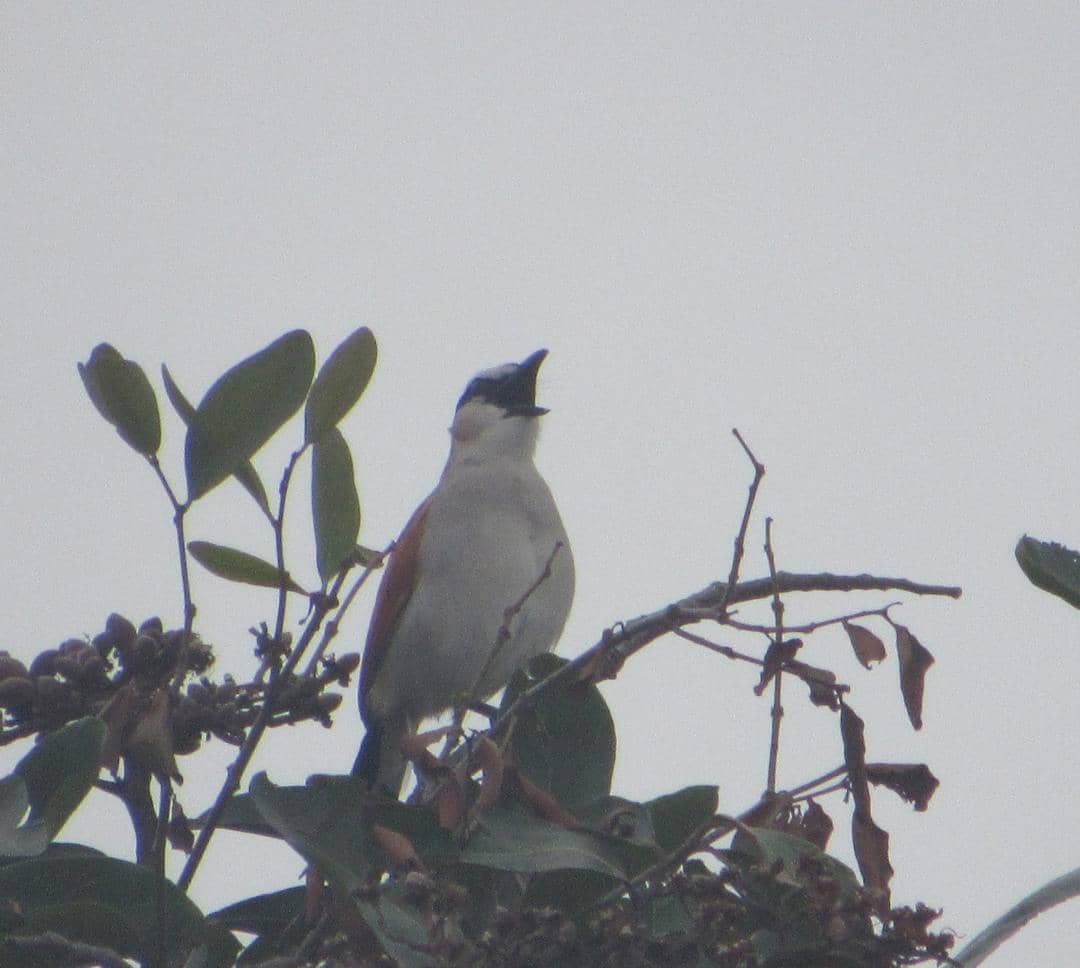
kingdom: Animalia
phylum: Chordata
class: Aves
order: Passeriformes
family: Malaconotidae
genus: Tchagra
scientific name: Tchagra senegalus
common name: Black-crowned tchagra
